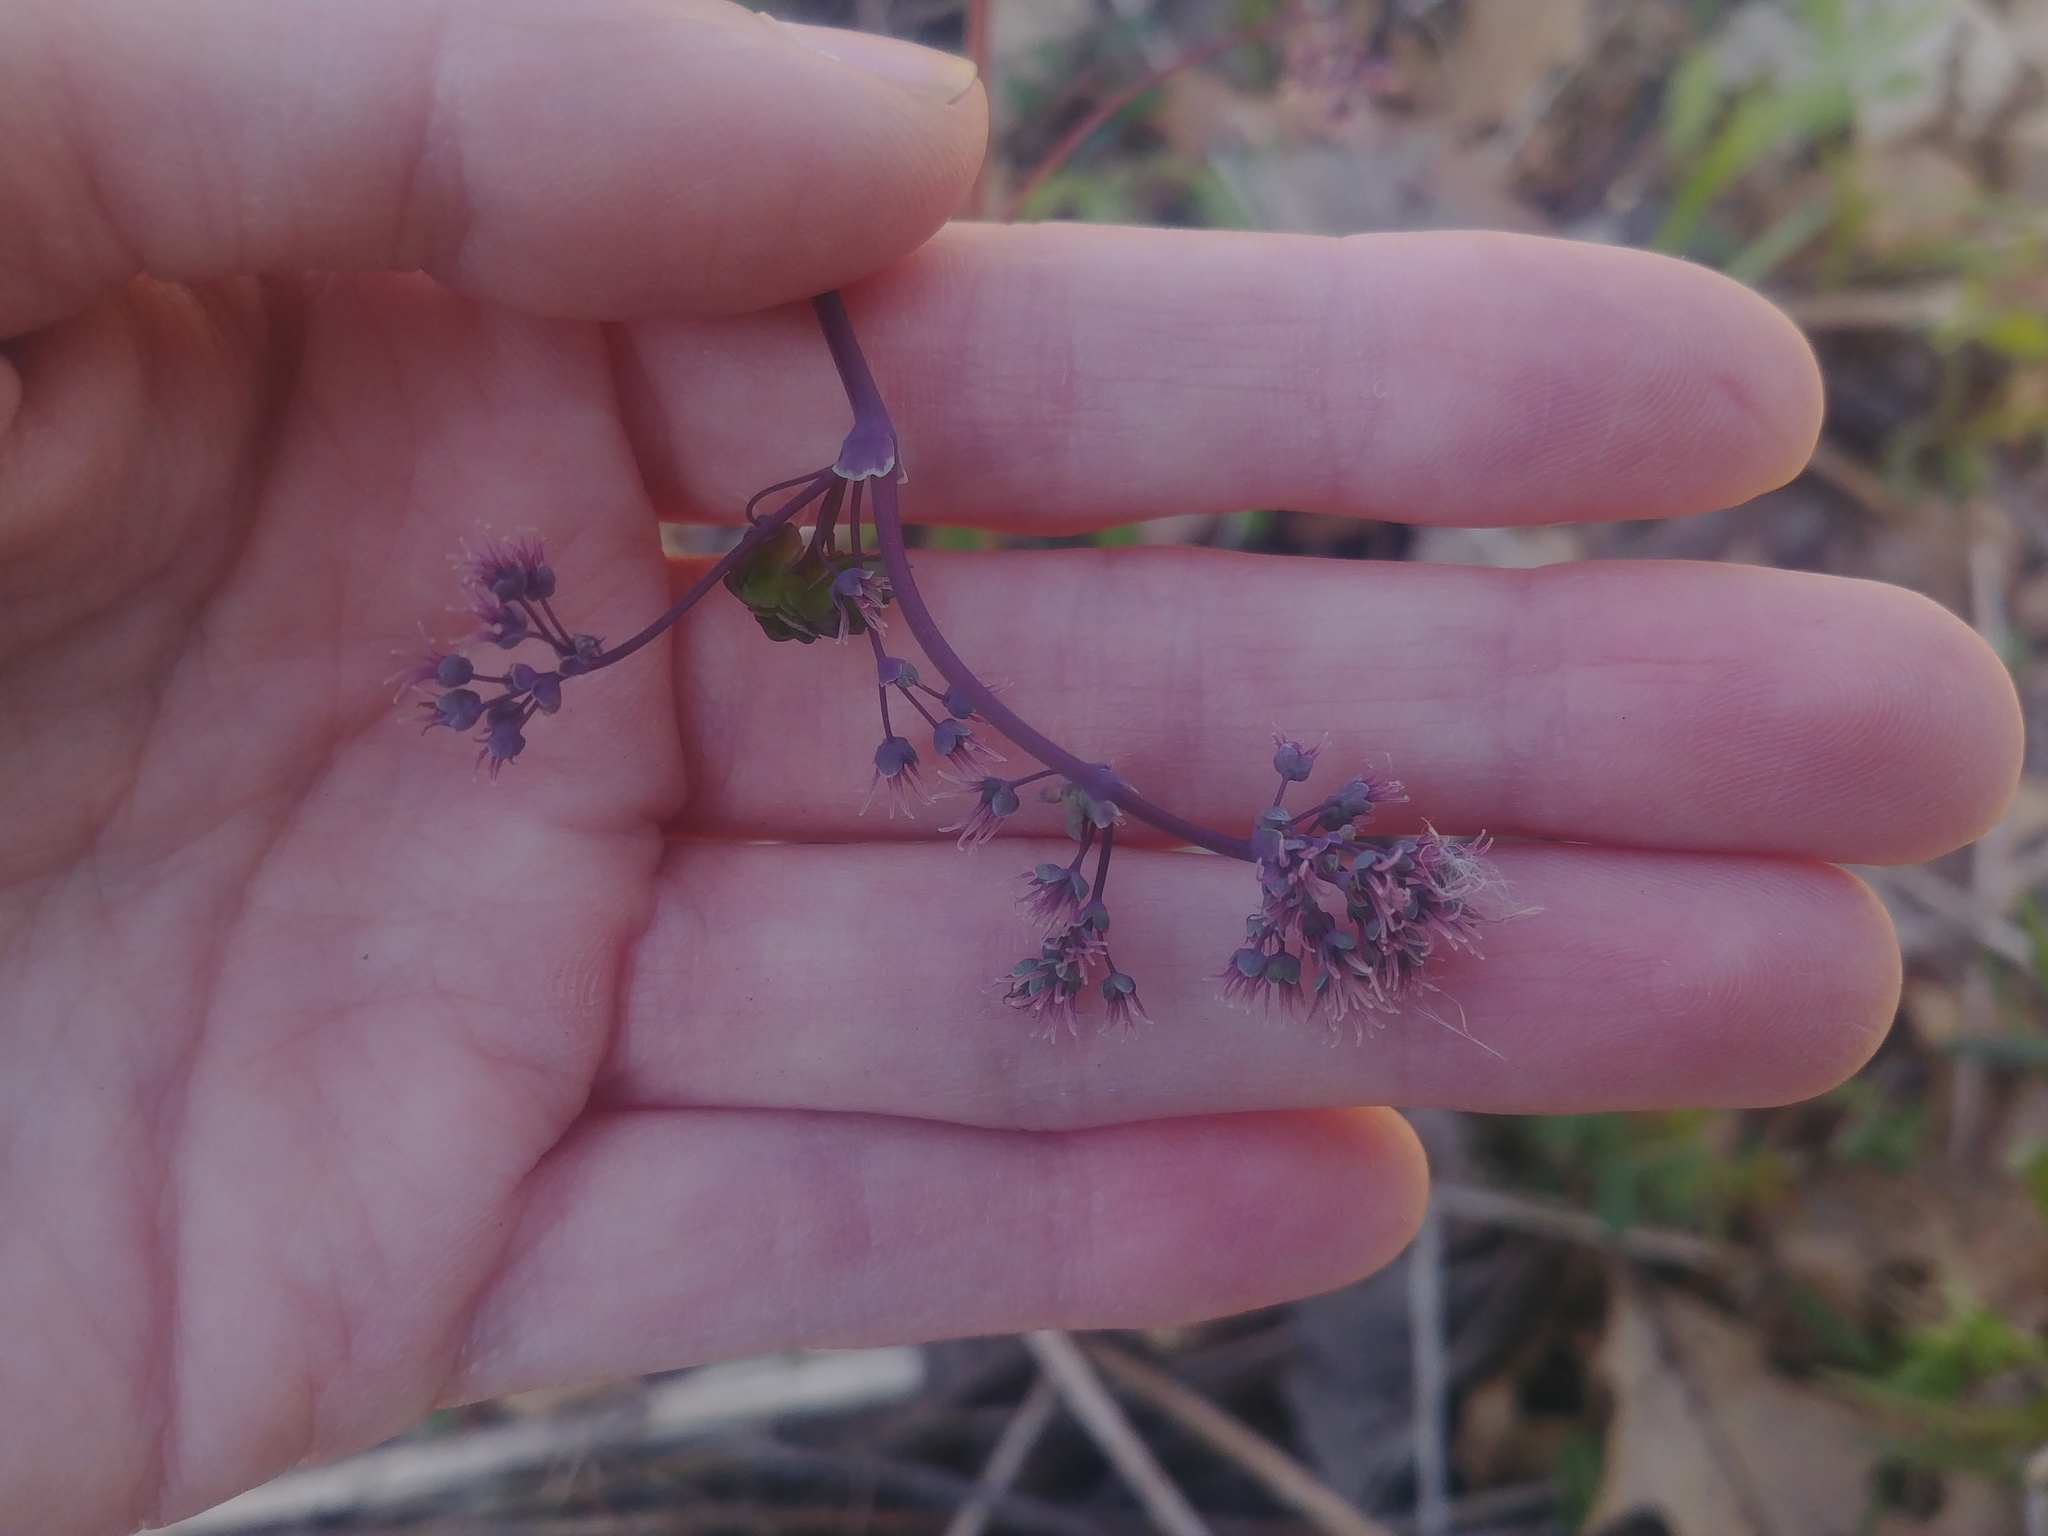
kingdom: Plantae
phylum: Tracheophyta
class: Magnoliopsida
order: Ranunculales
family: Ranunculaceae
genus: Thalictrum
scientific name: Thalictrum dioicum
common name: Early meadow-rue
